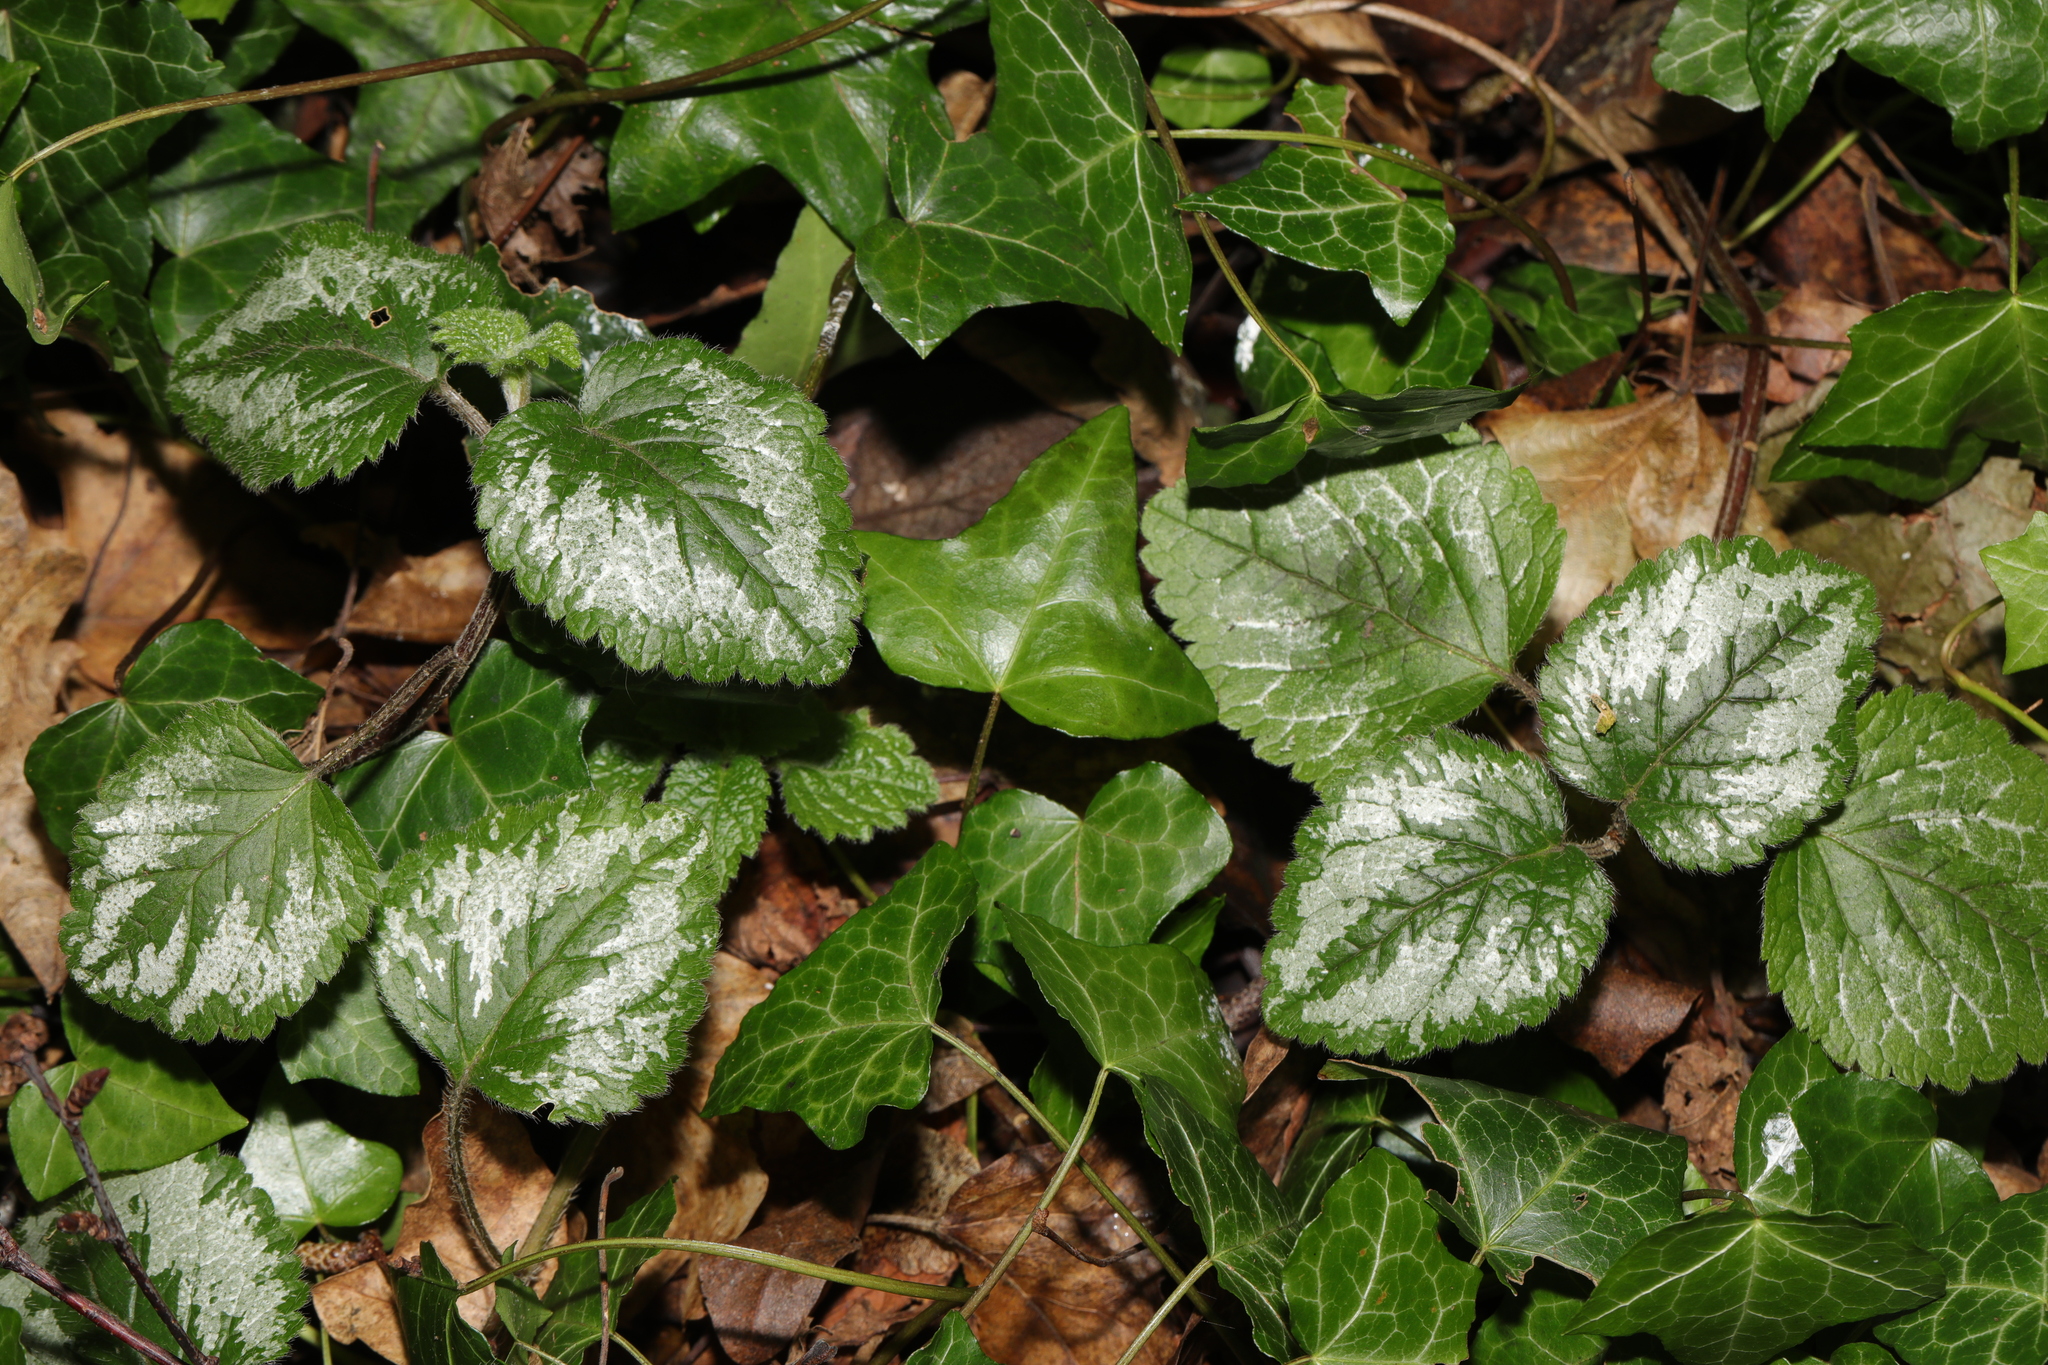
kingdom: Plantae
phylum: Tracheophyta
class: Magnoliopsida
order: Lamiales
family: Lamiaceae
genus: Lamium
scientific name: Lamium galeobdolon
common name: Yellow archangel
